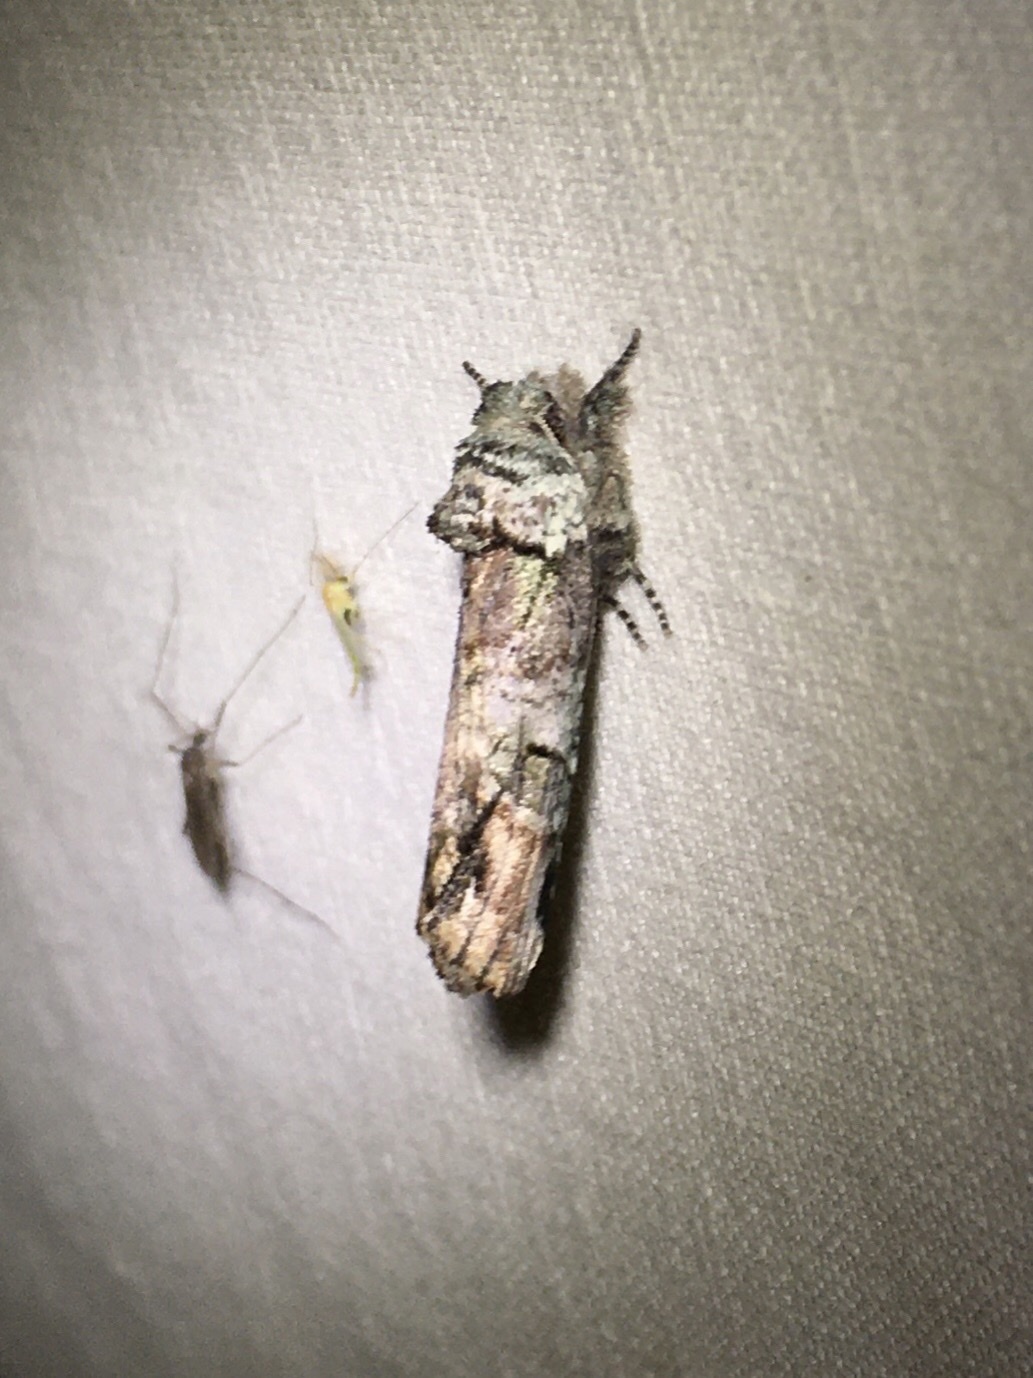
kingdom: Animalia
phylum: Arthropoda
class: Insecta
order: Lepidoptera
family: Notodontidae
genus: Schizura
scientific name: Schizura
